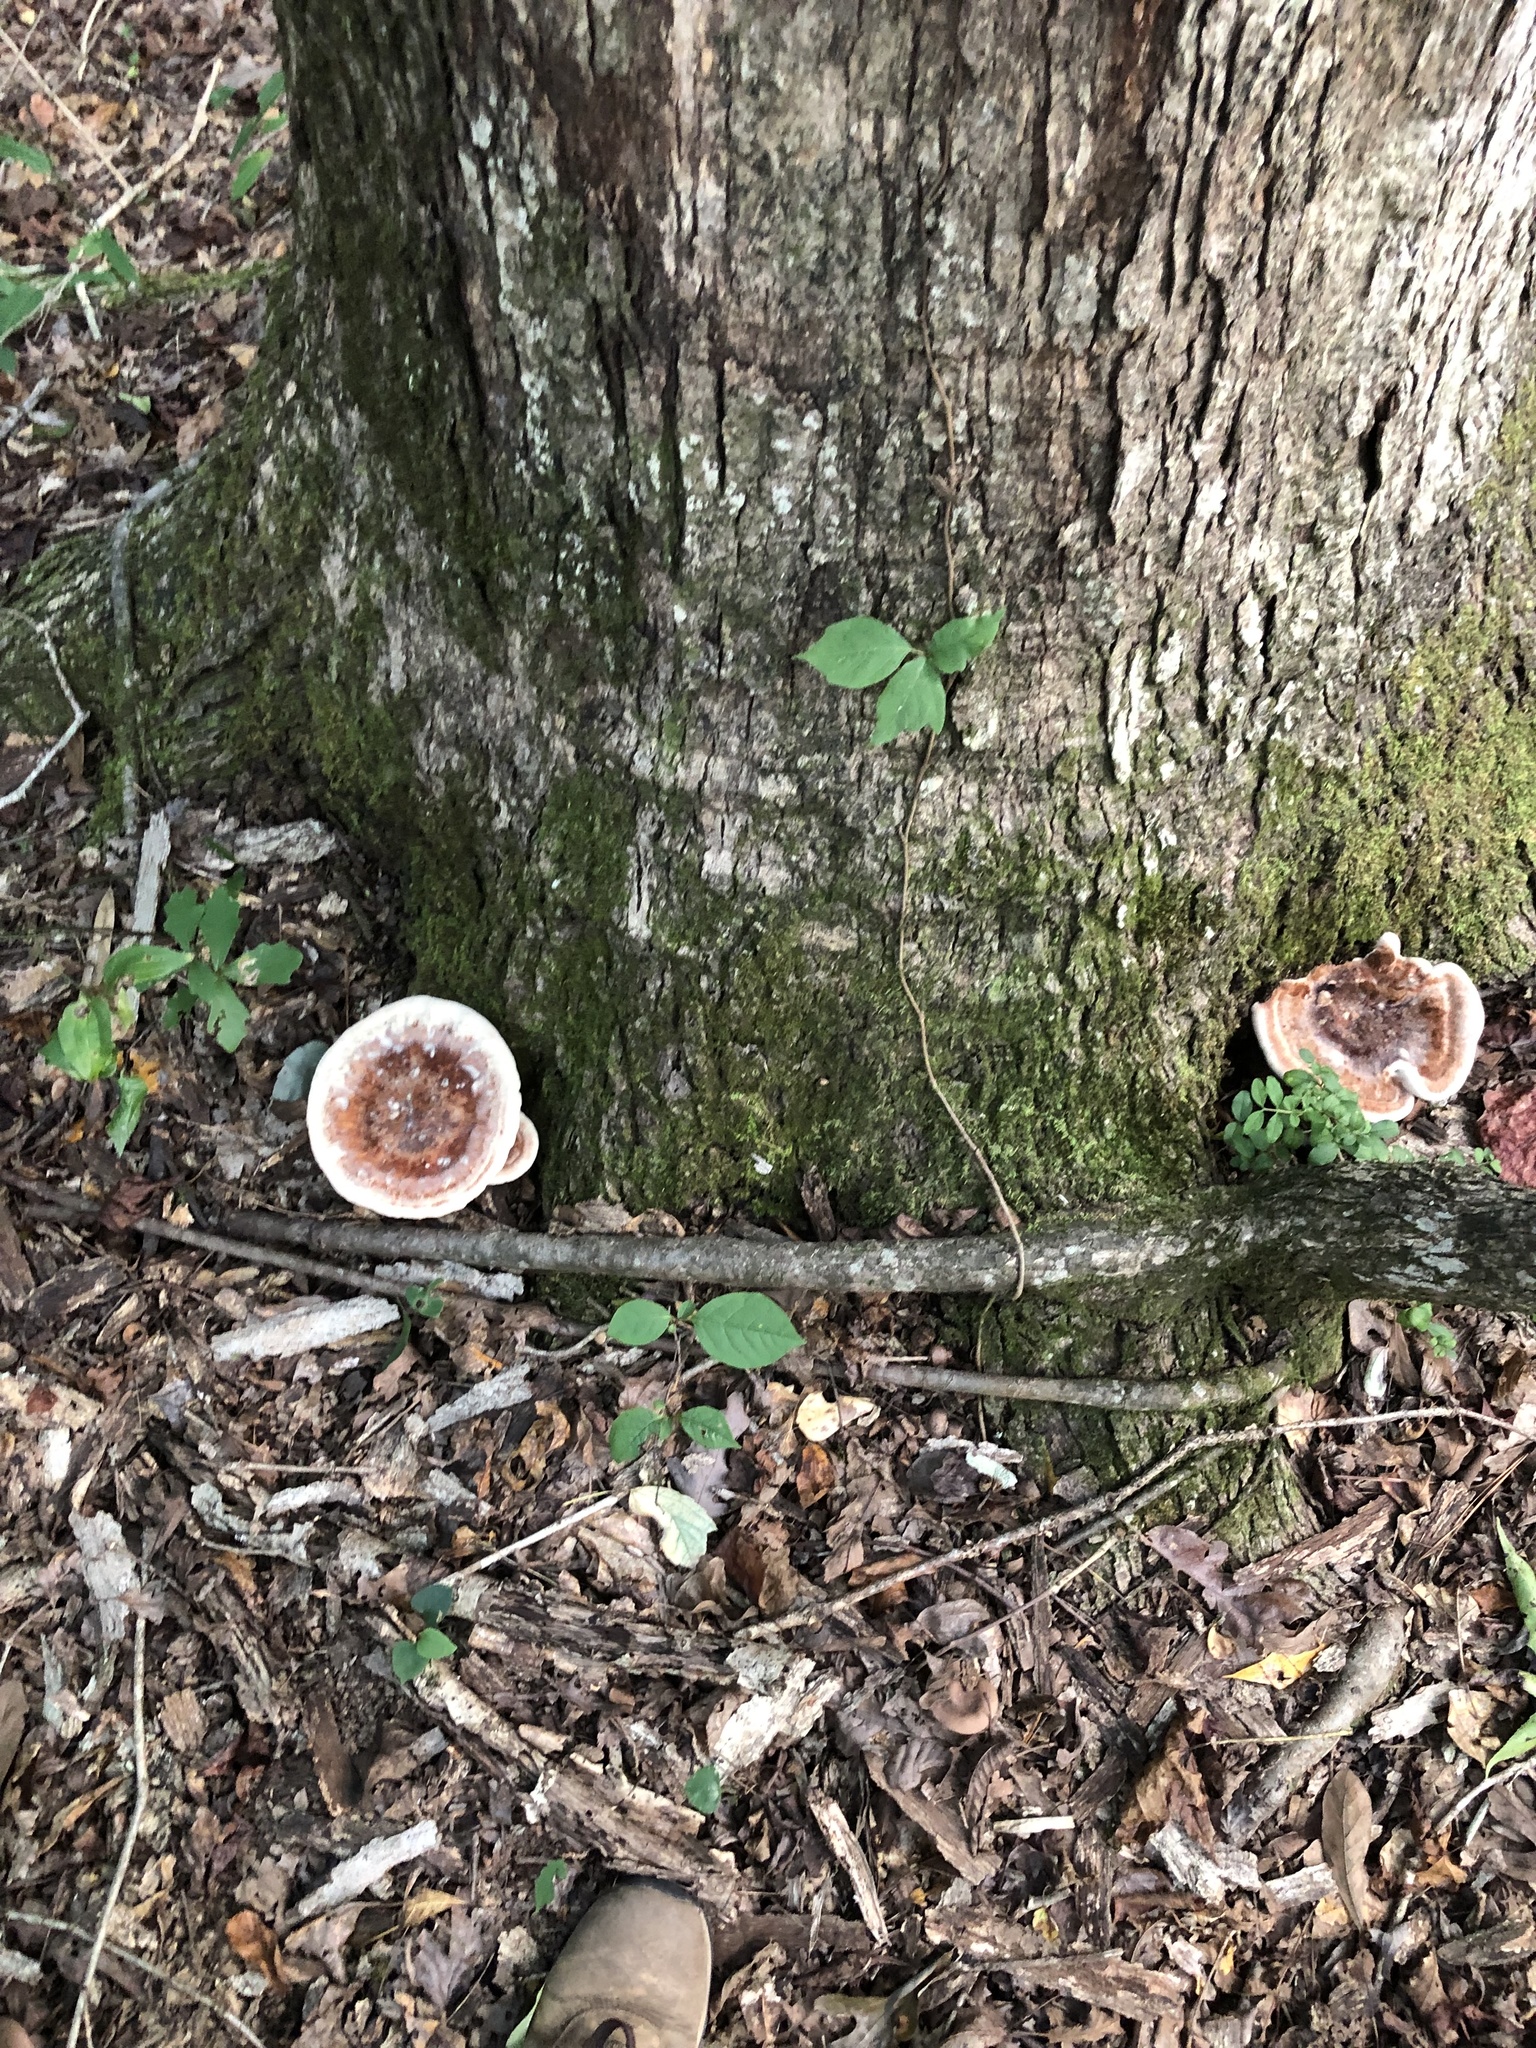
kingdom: Fungi
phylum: Basidiomycota
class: Agaricomycetes
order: Polyporales
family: Laetiporaceae
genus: Berkcurtia
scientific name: Berkcurtia persicina
